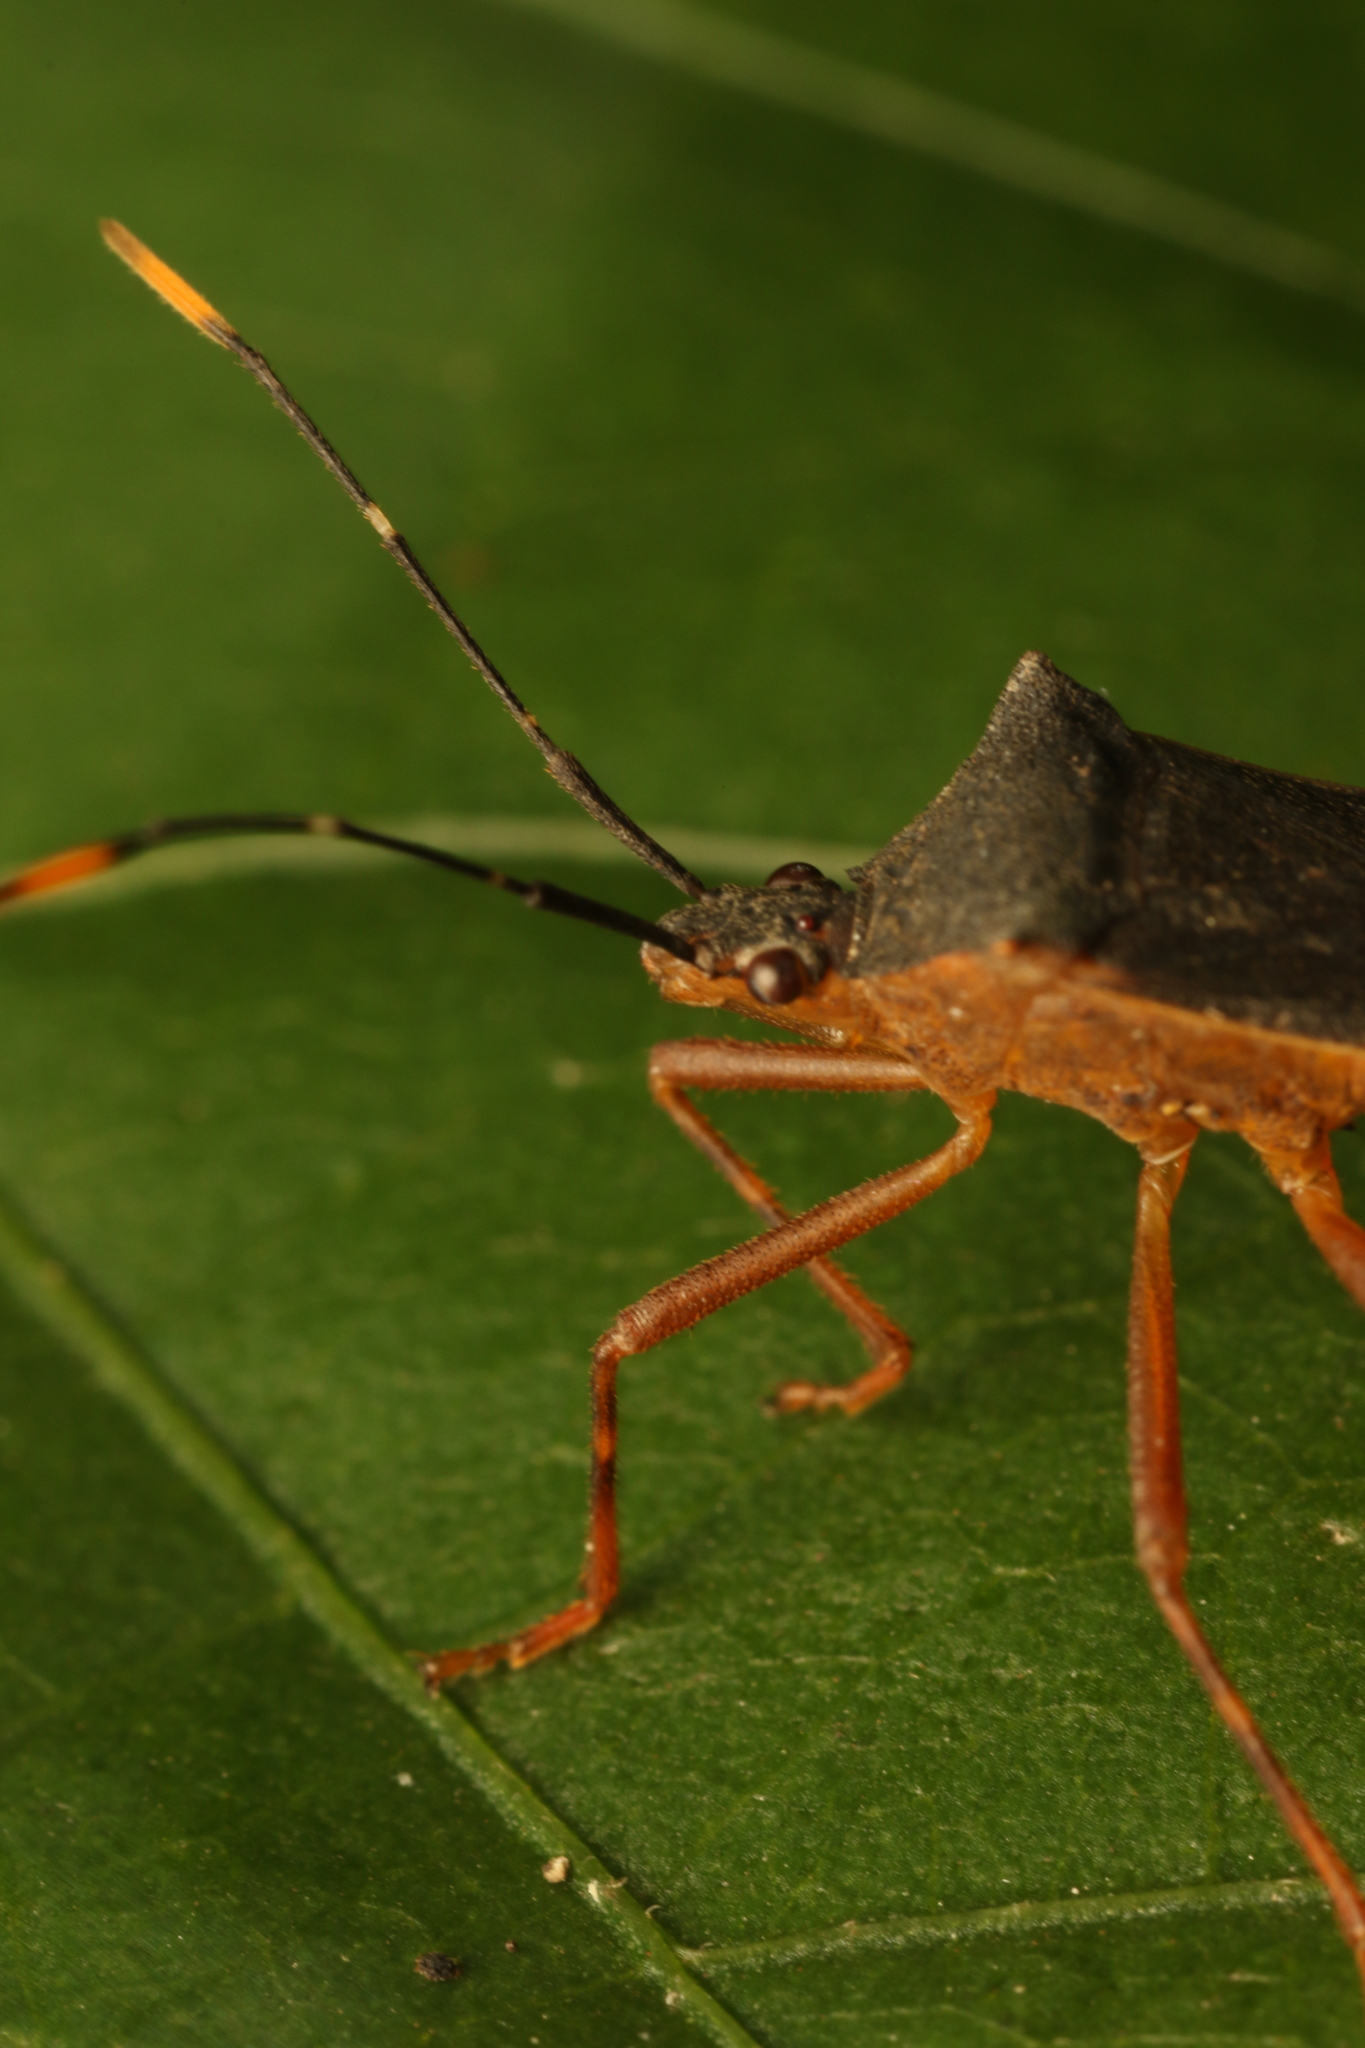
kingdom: Animalia
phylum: Arthropoda
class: Insecta
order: Hemiptera
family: Coreidae
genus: Leptoscelis
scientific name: Leptoscelis elongator
